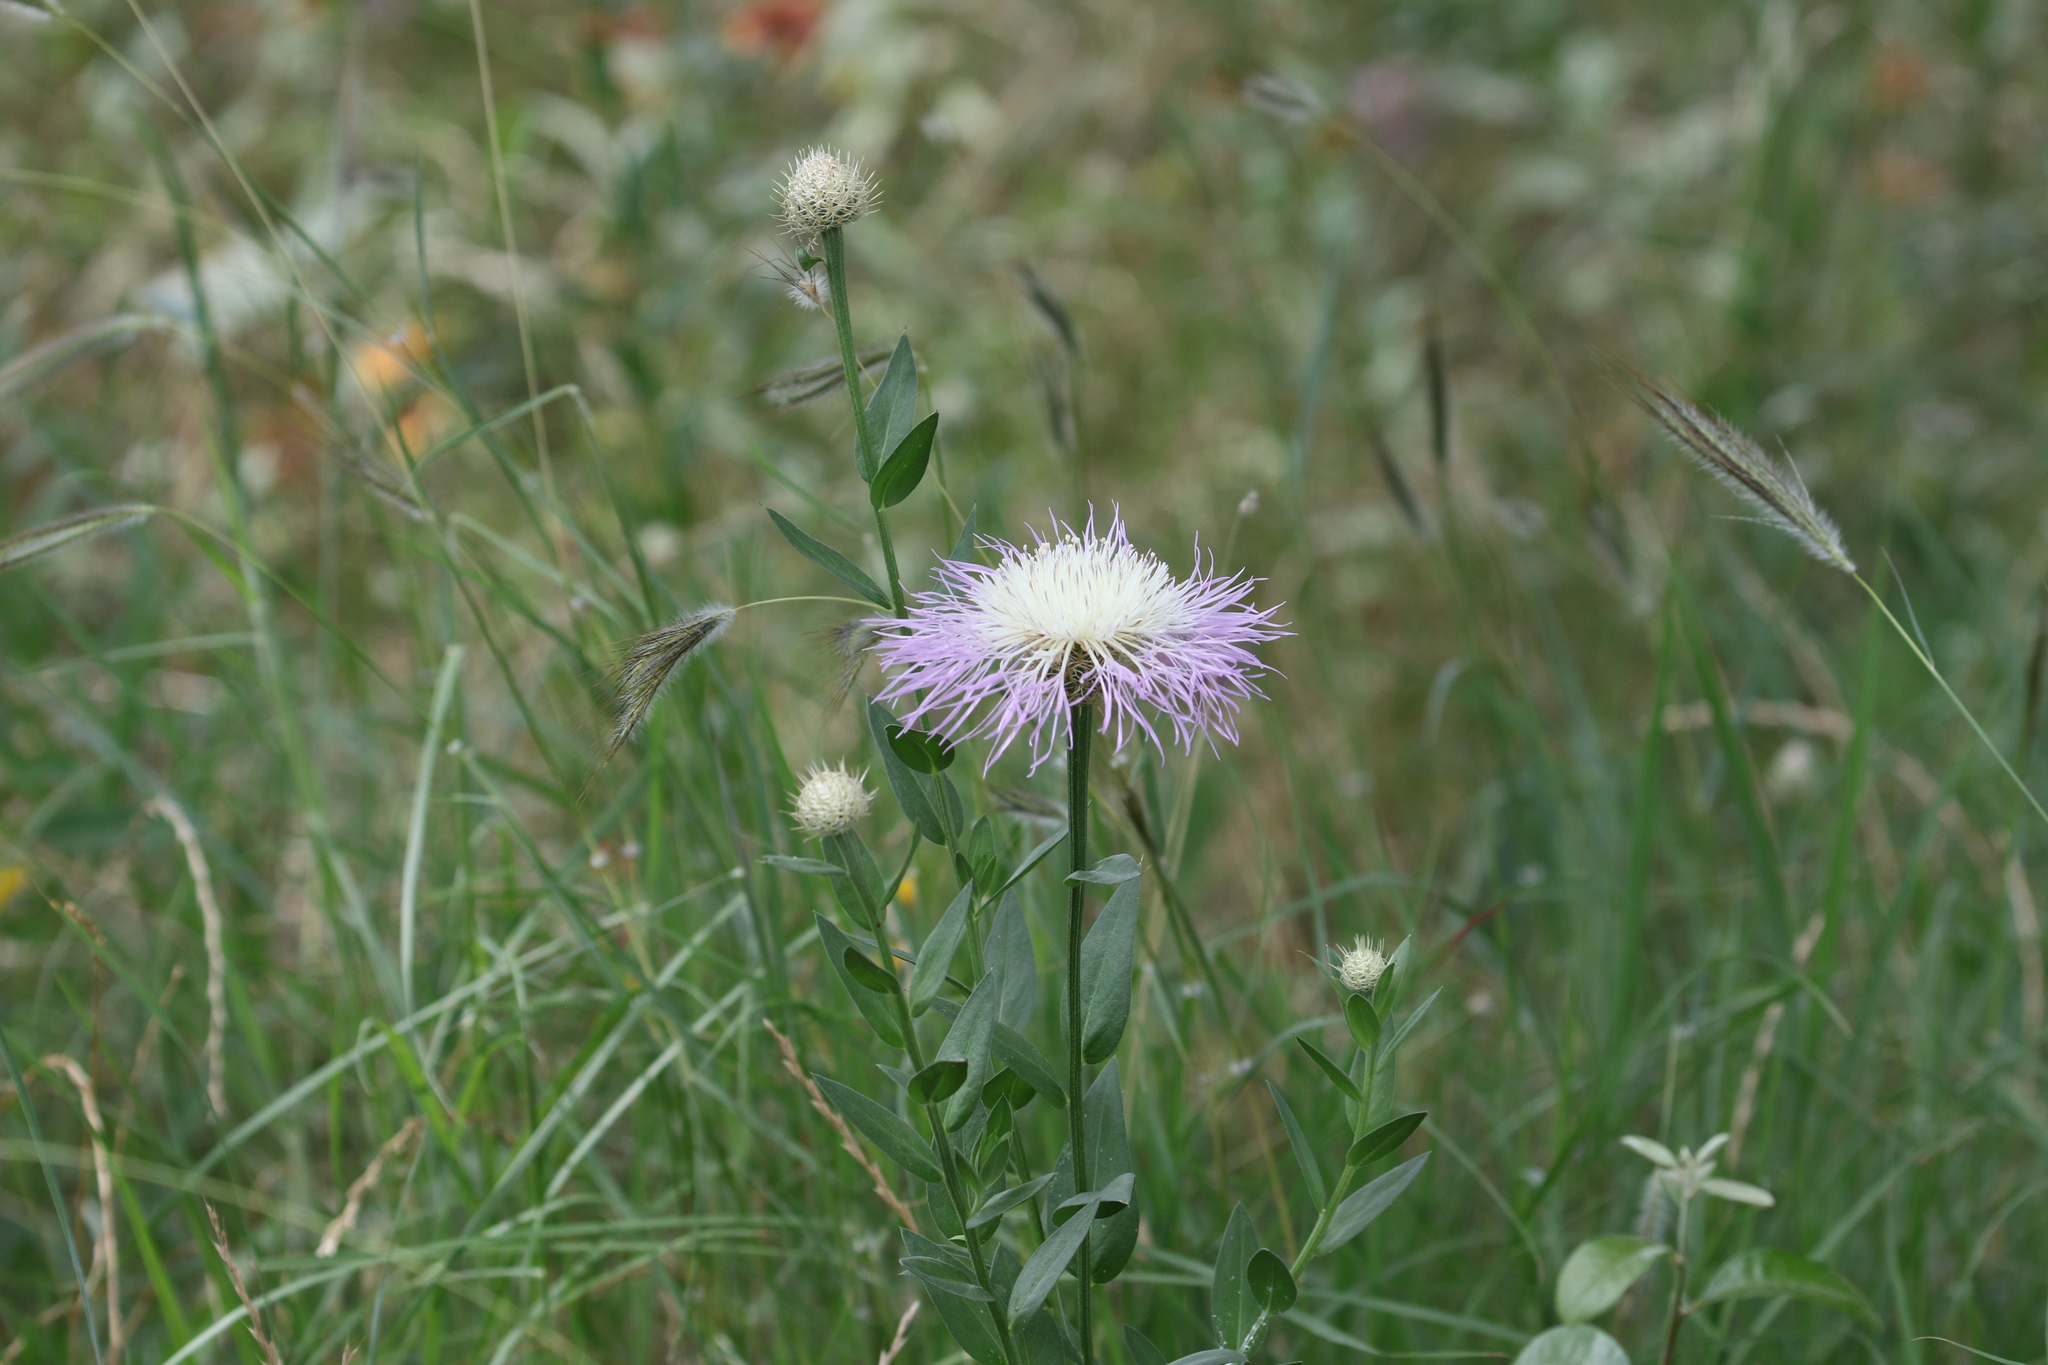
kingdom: Plantae
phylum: Tracheophyta
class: Magnoliopsida
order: Asterales
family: Asteraceae
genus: Plectocephalus
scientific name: Plectocephalus americanus
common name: American basket-flower
